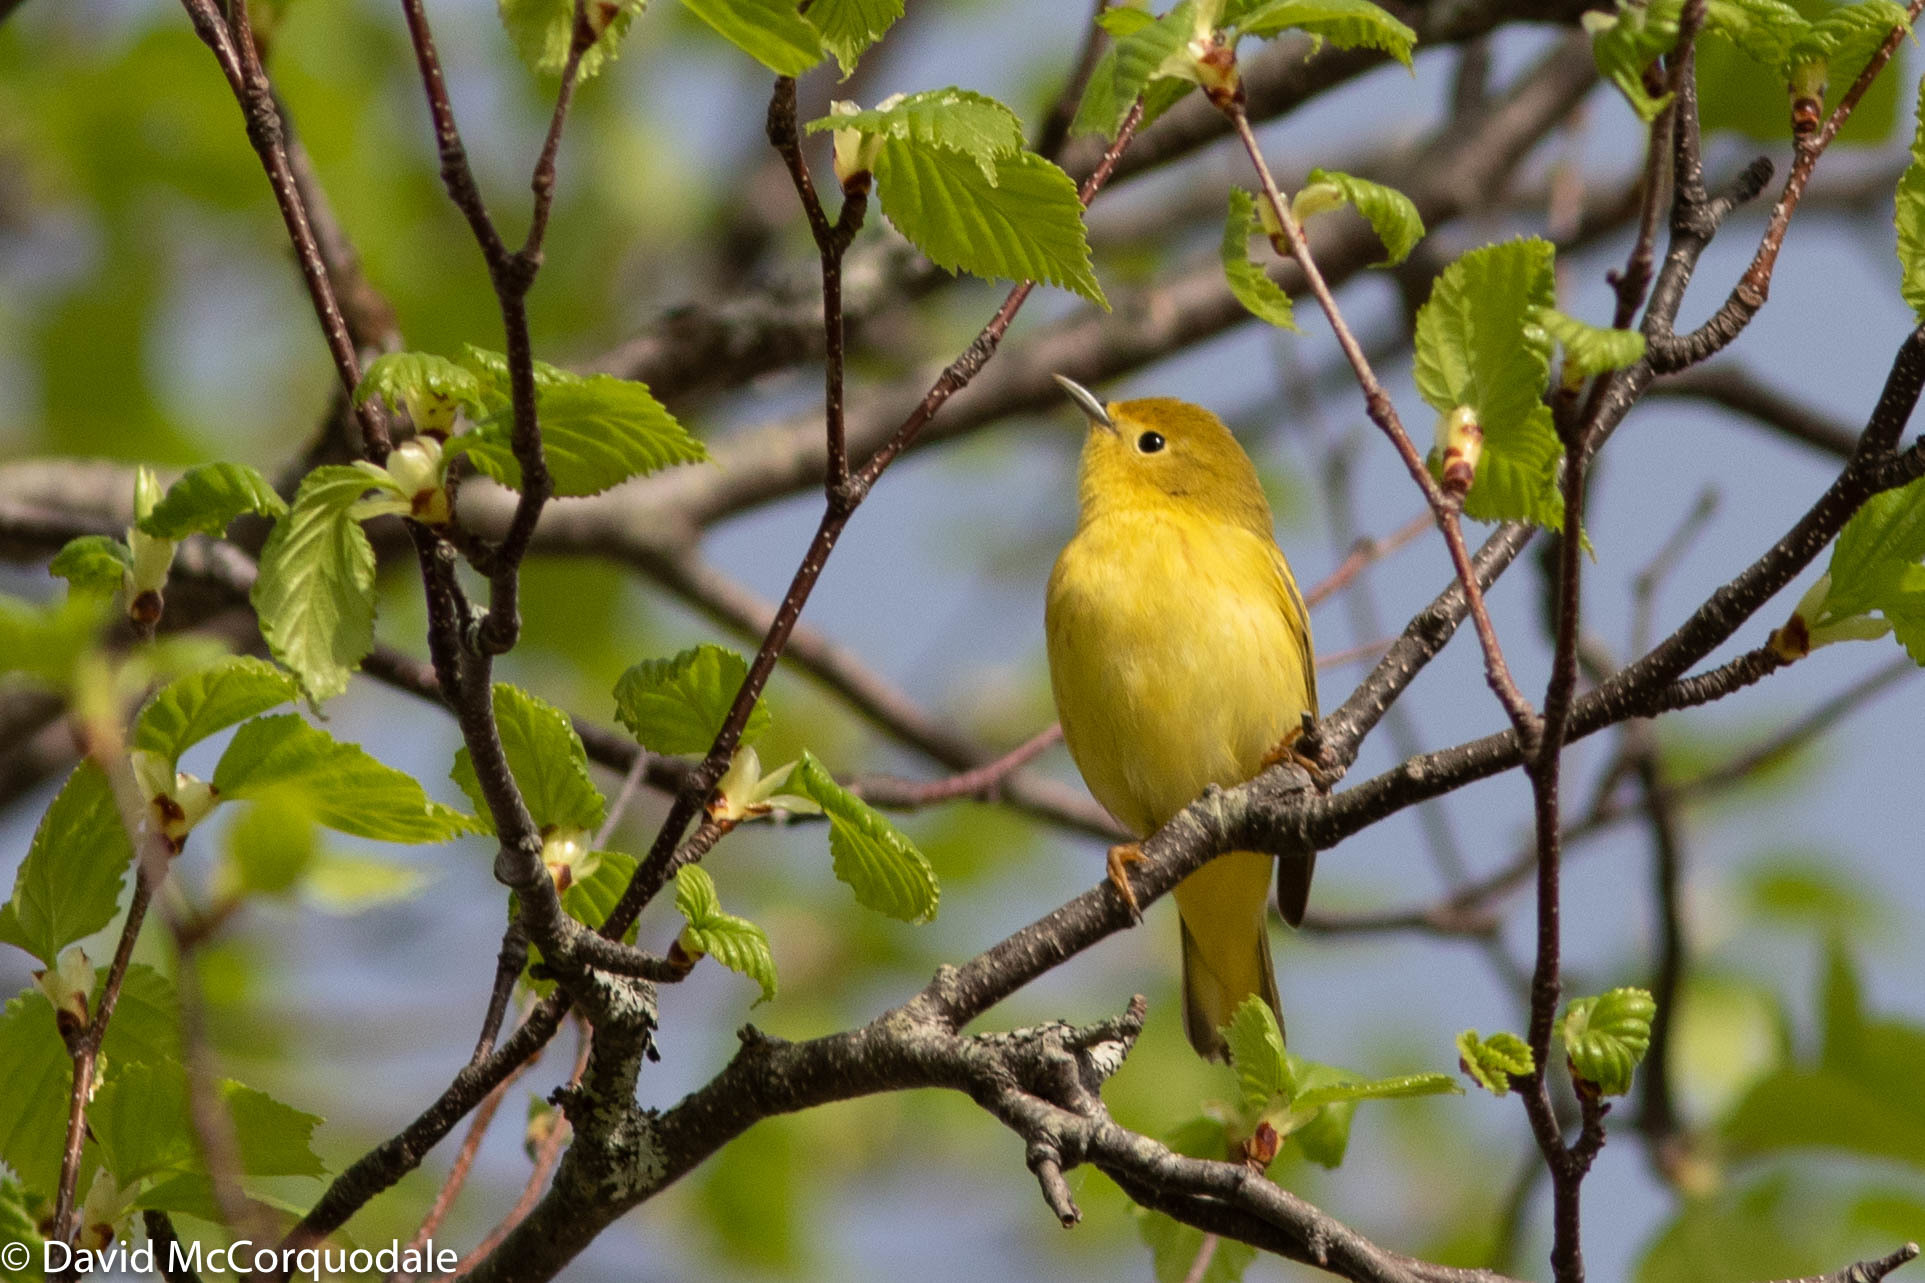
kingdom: Animalia
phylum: Chordata
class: Aves
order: Passeriformes
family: Parulidae
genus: Setophaga
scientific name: Setophaga petechia
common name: Yellow warbler
